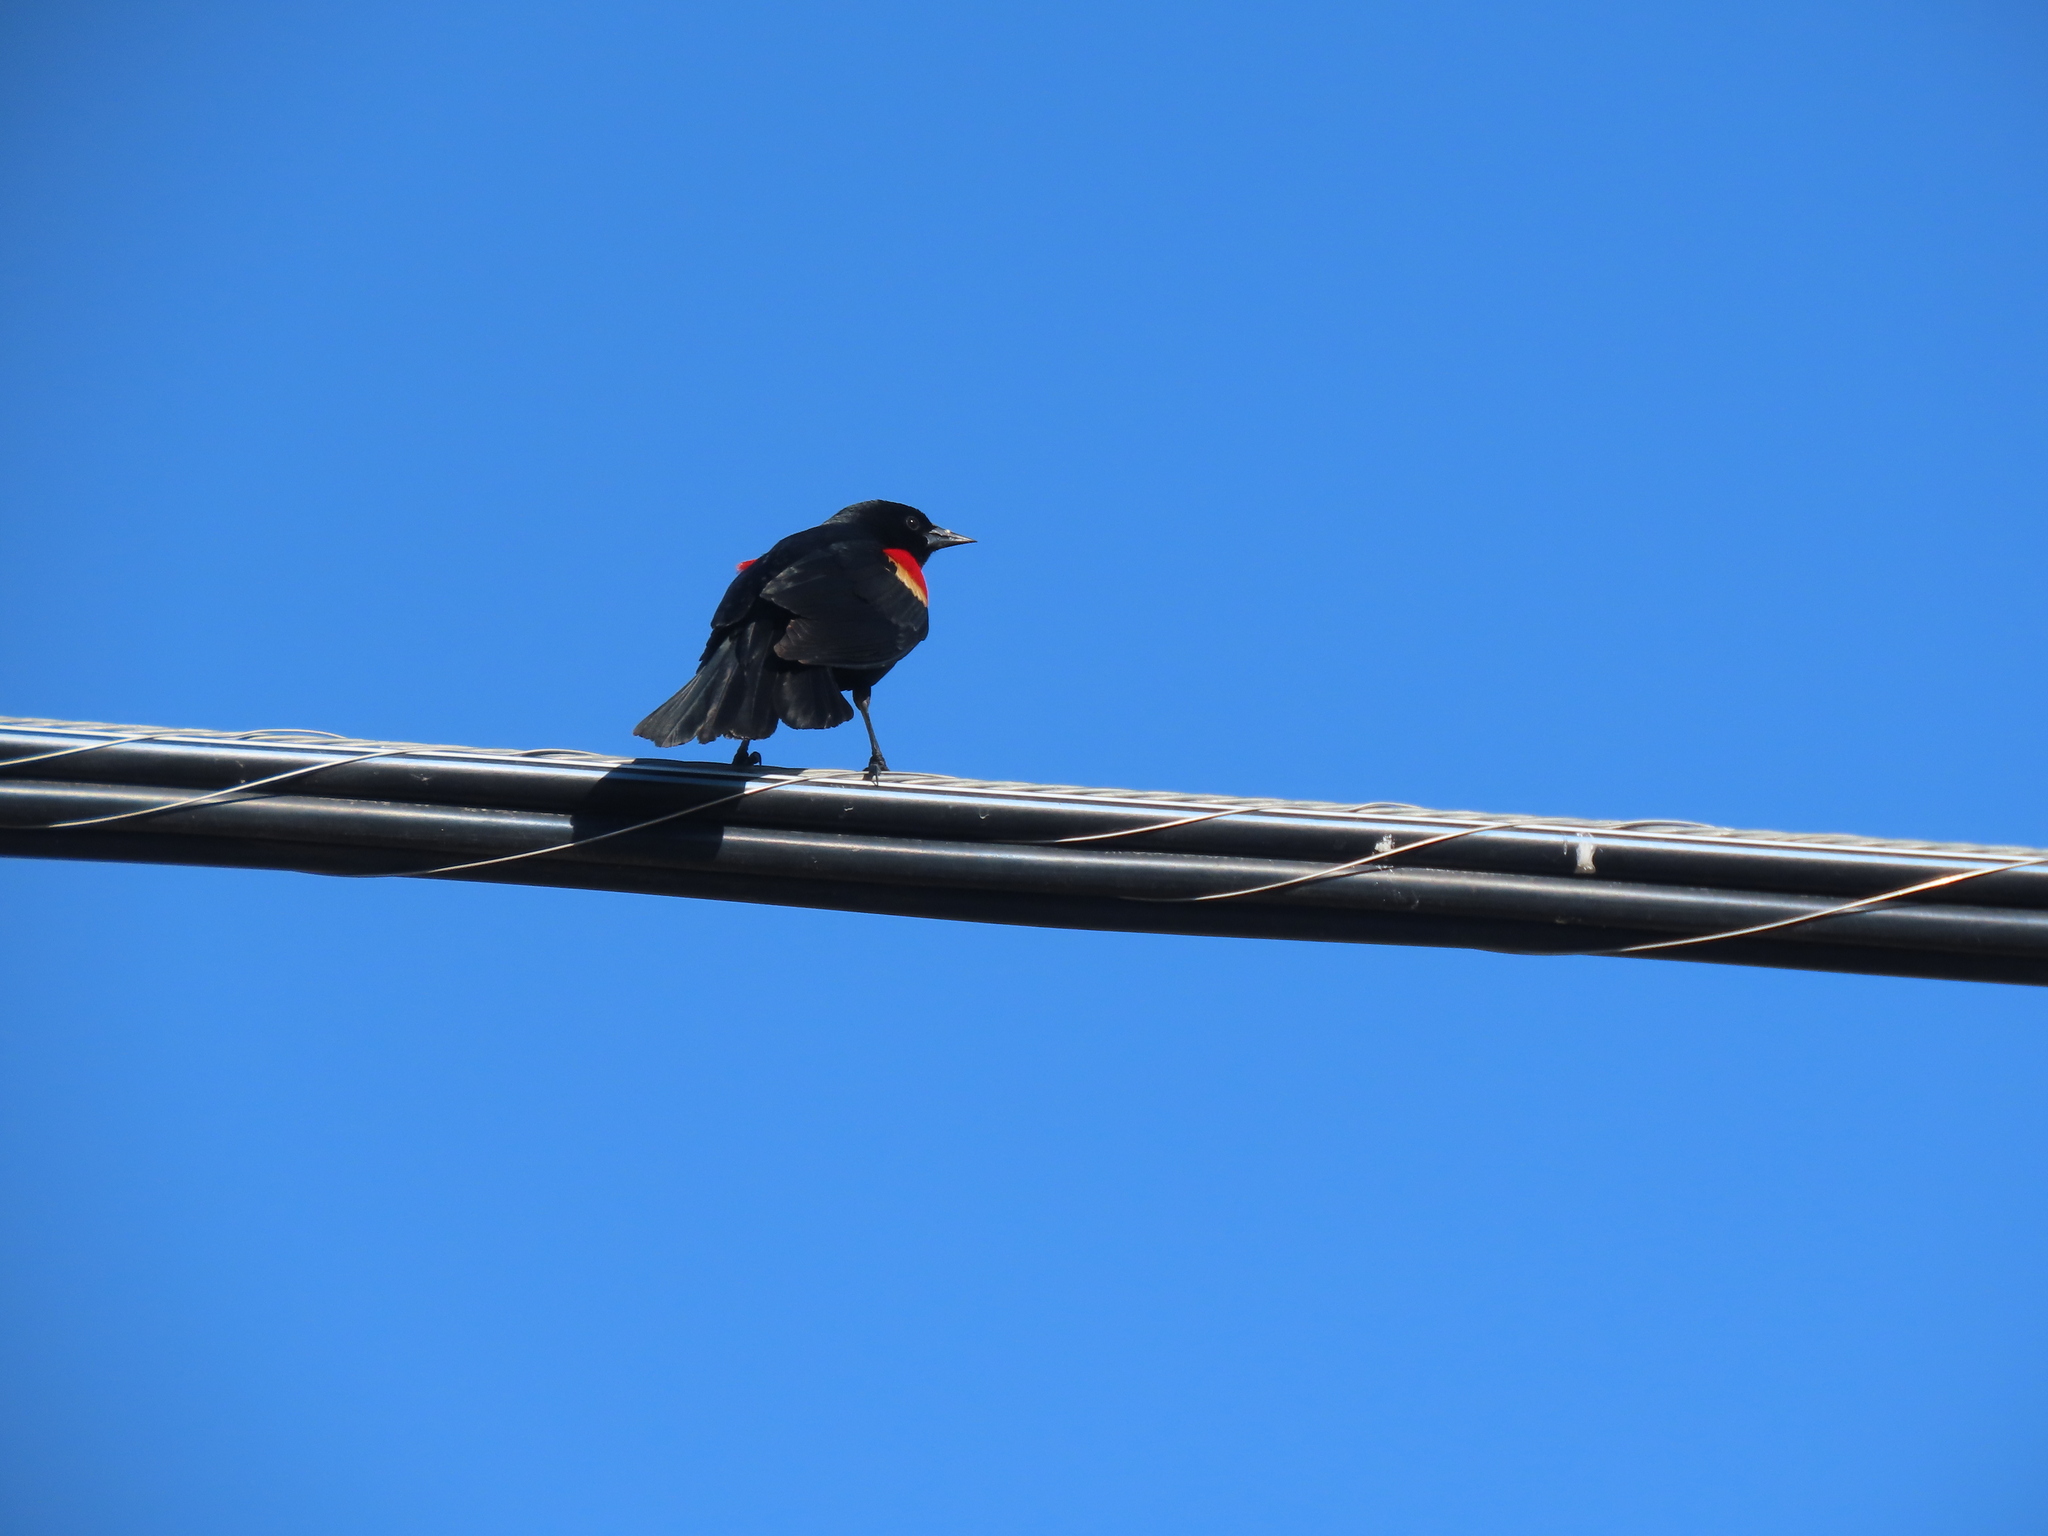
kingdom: Animalia
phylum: Chordata
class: Aves
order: Passeriformes
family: Icteridae
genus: Agelaius
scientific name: Agelaius phoeniceus
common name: Red-winged blackbird
